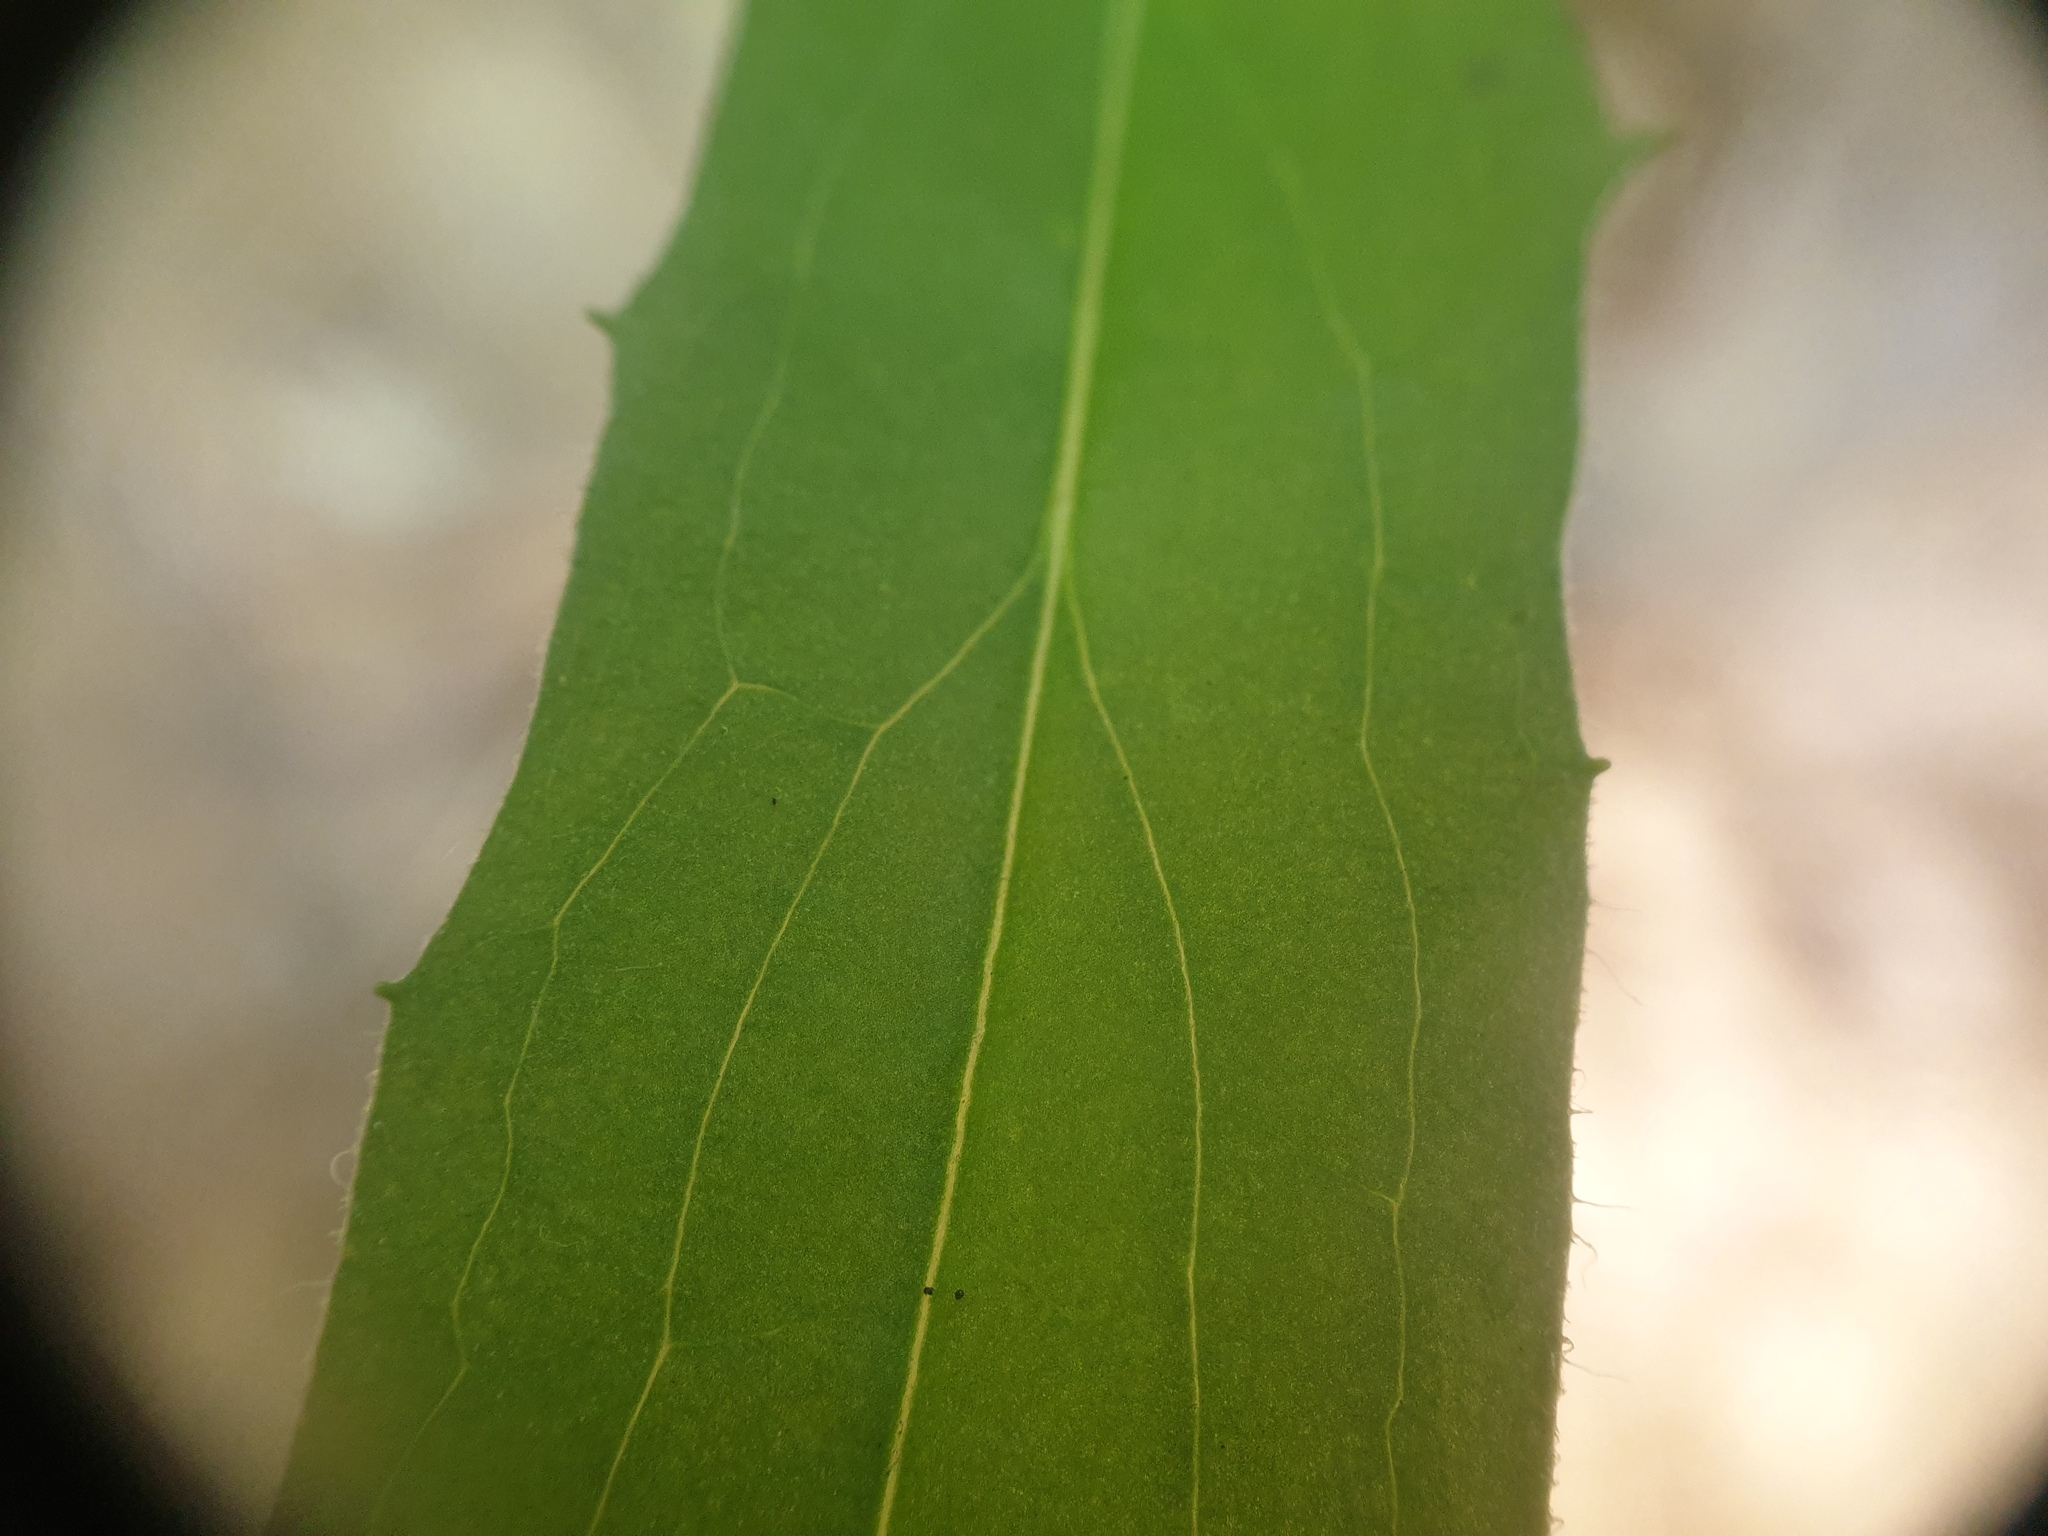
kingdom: Plantae
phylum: Tracheophyta
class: Magnoliopsida
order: Asterales
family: Asteraceae
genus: Hieracium
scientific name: Hieracium tridentatum
